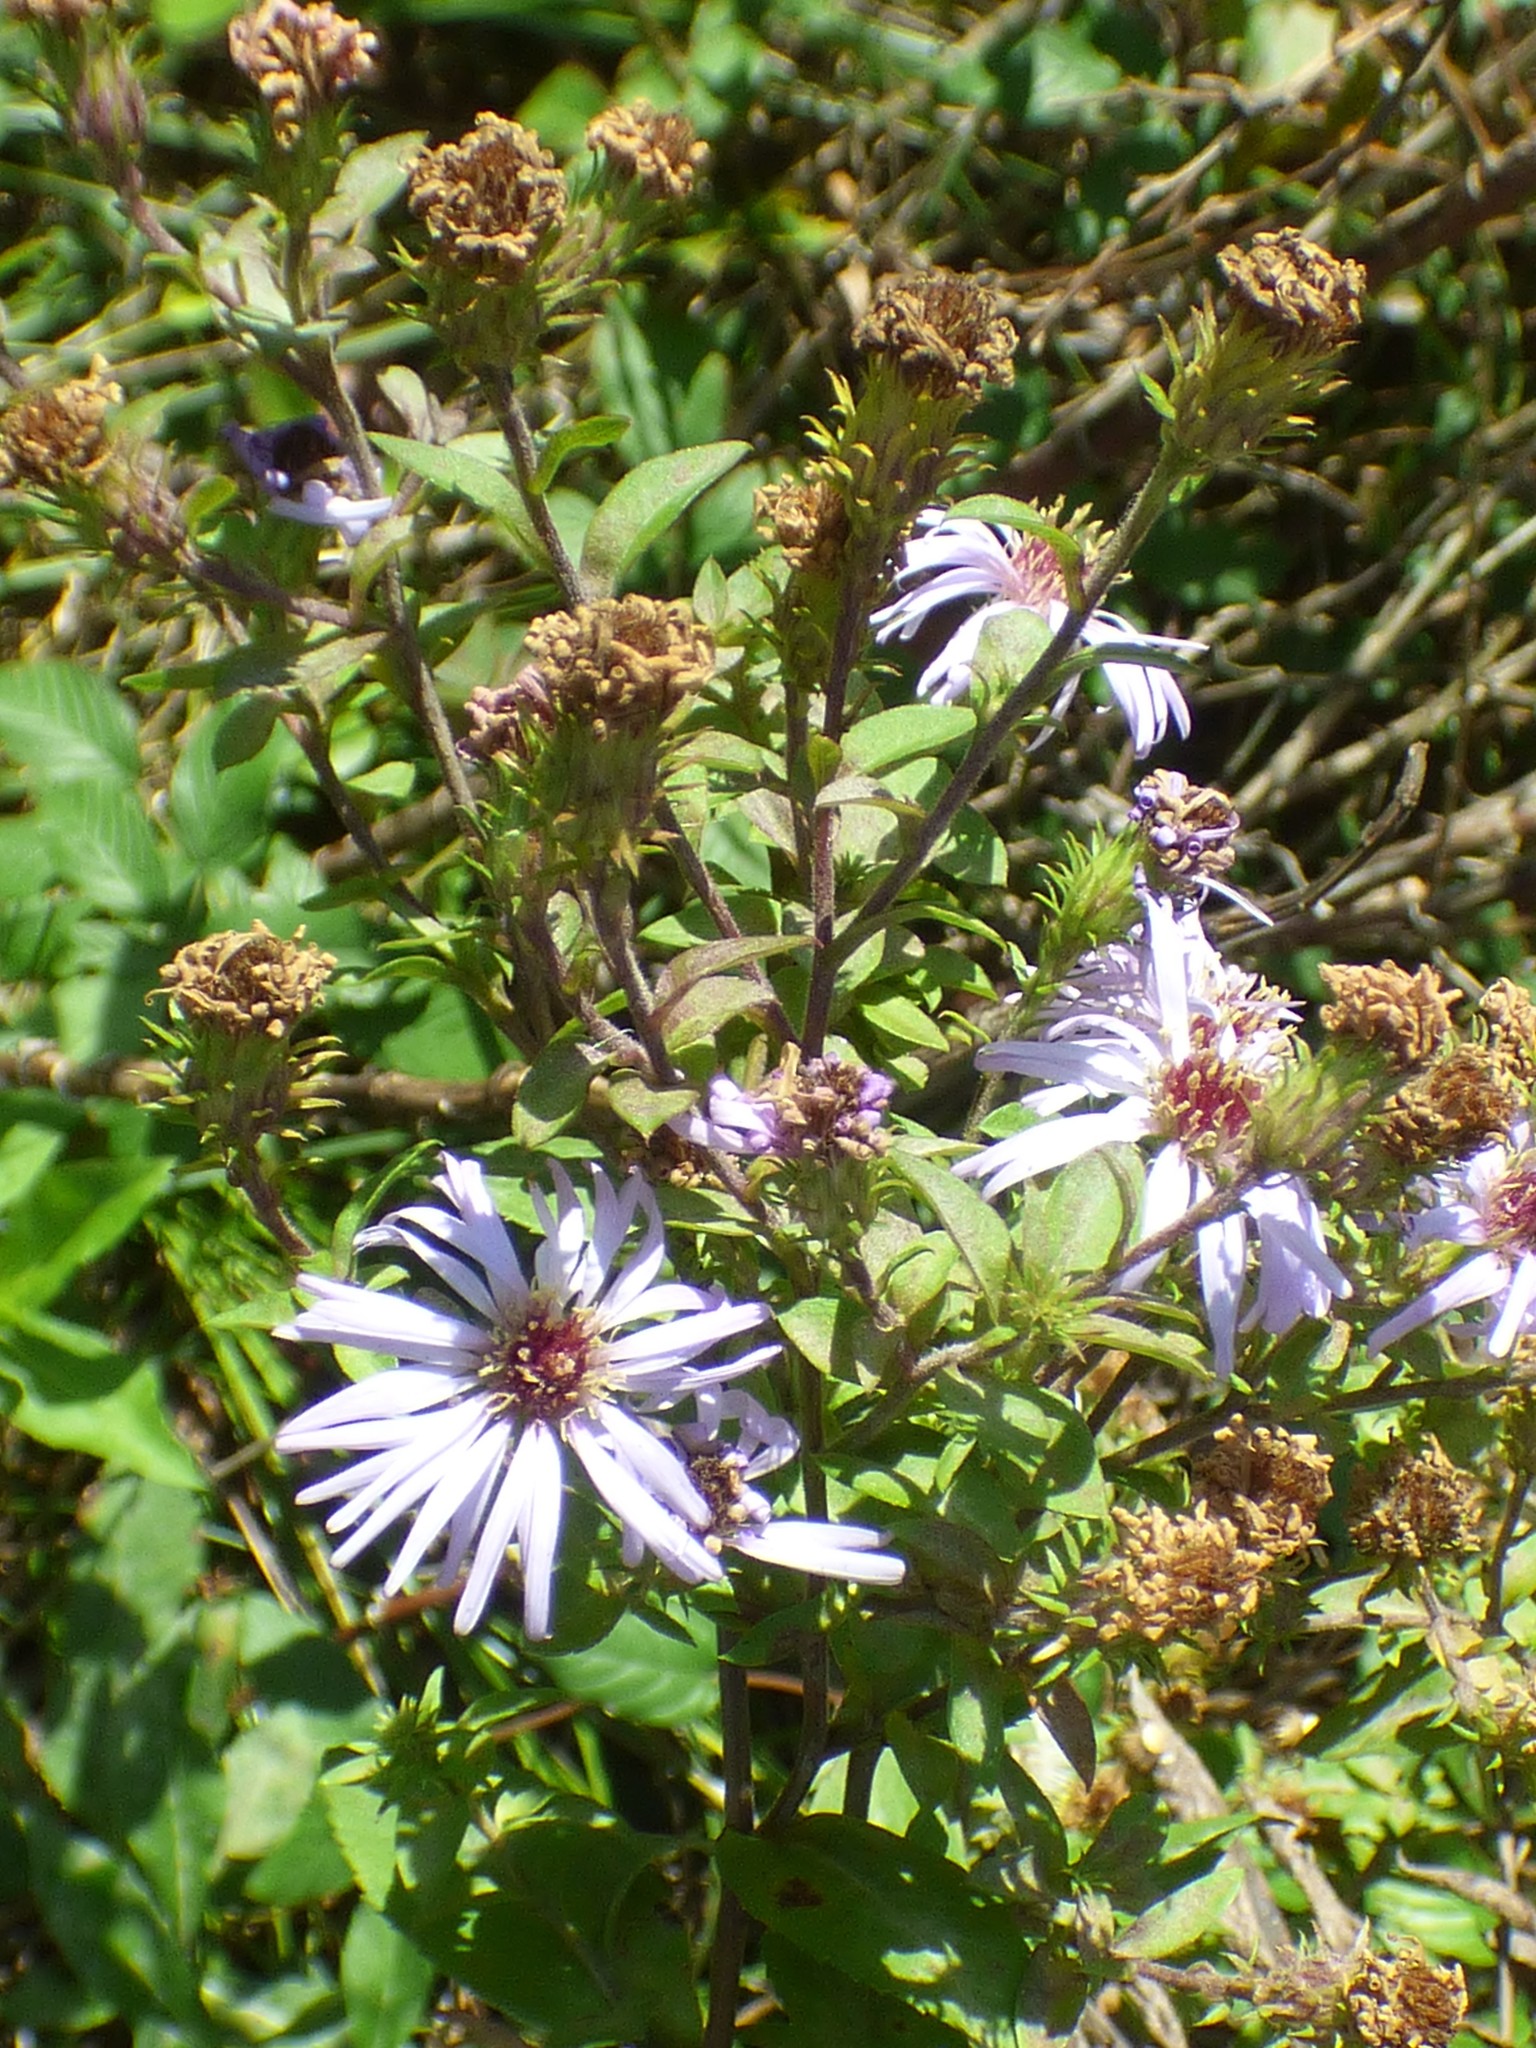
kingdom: Plantae
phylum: Tracheophyta
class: Magnoliopsida
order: Asterales
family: Asteraceae
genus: Ampelaster
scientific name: Ampelaster carolinianus
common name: Climbing aster
